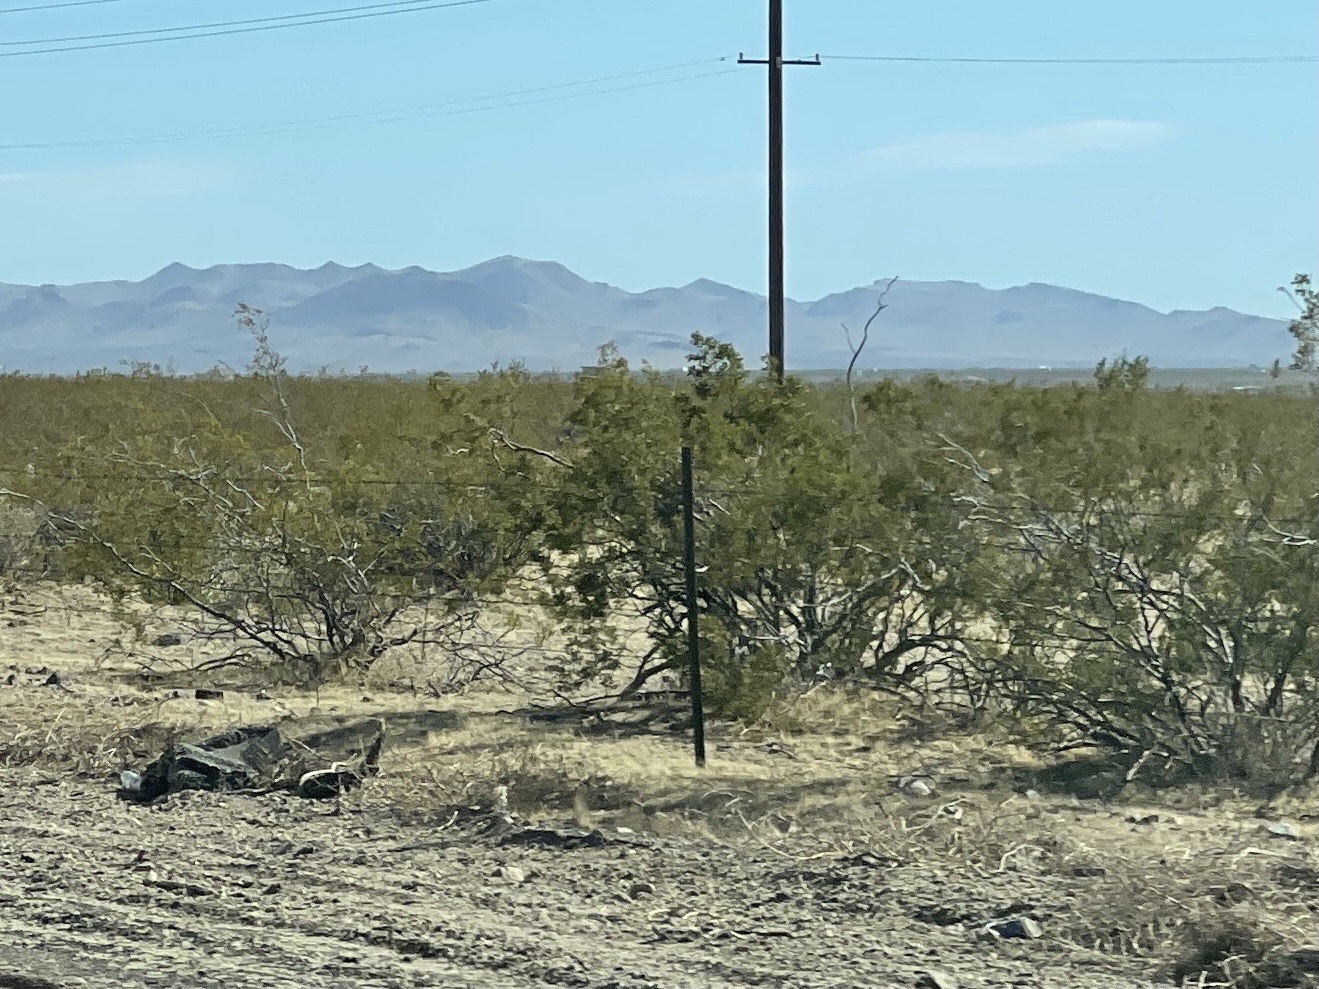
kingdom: Plantae
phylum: Tracheophyta
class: Magnoliopsida
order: Zygophyllales
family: Zygophyllaceae
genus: Larrea
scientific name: Larrea tridentata
